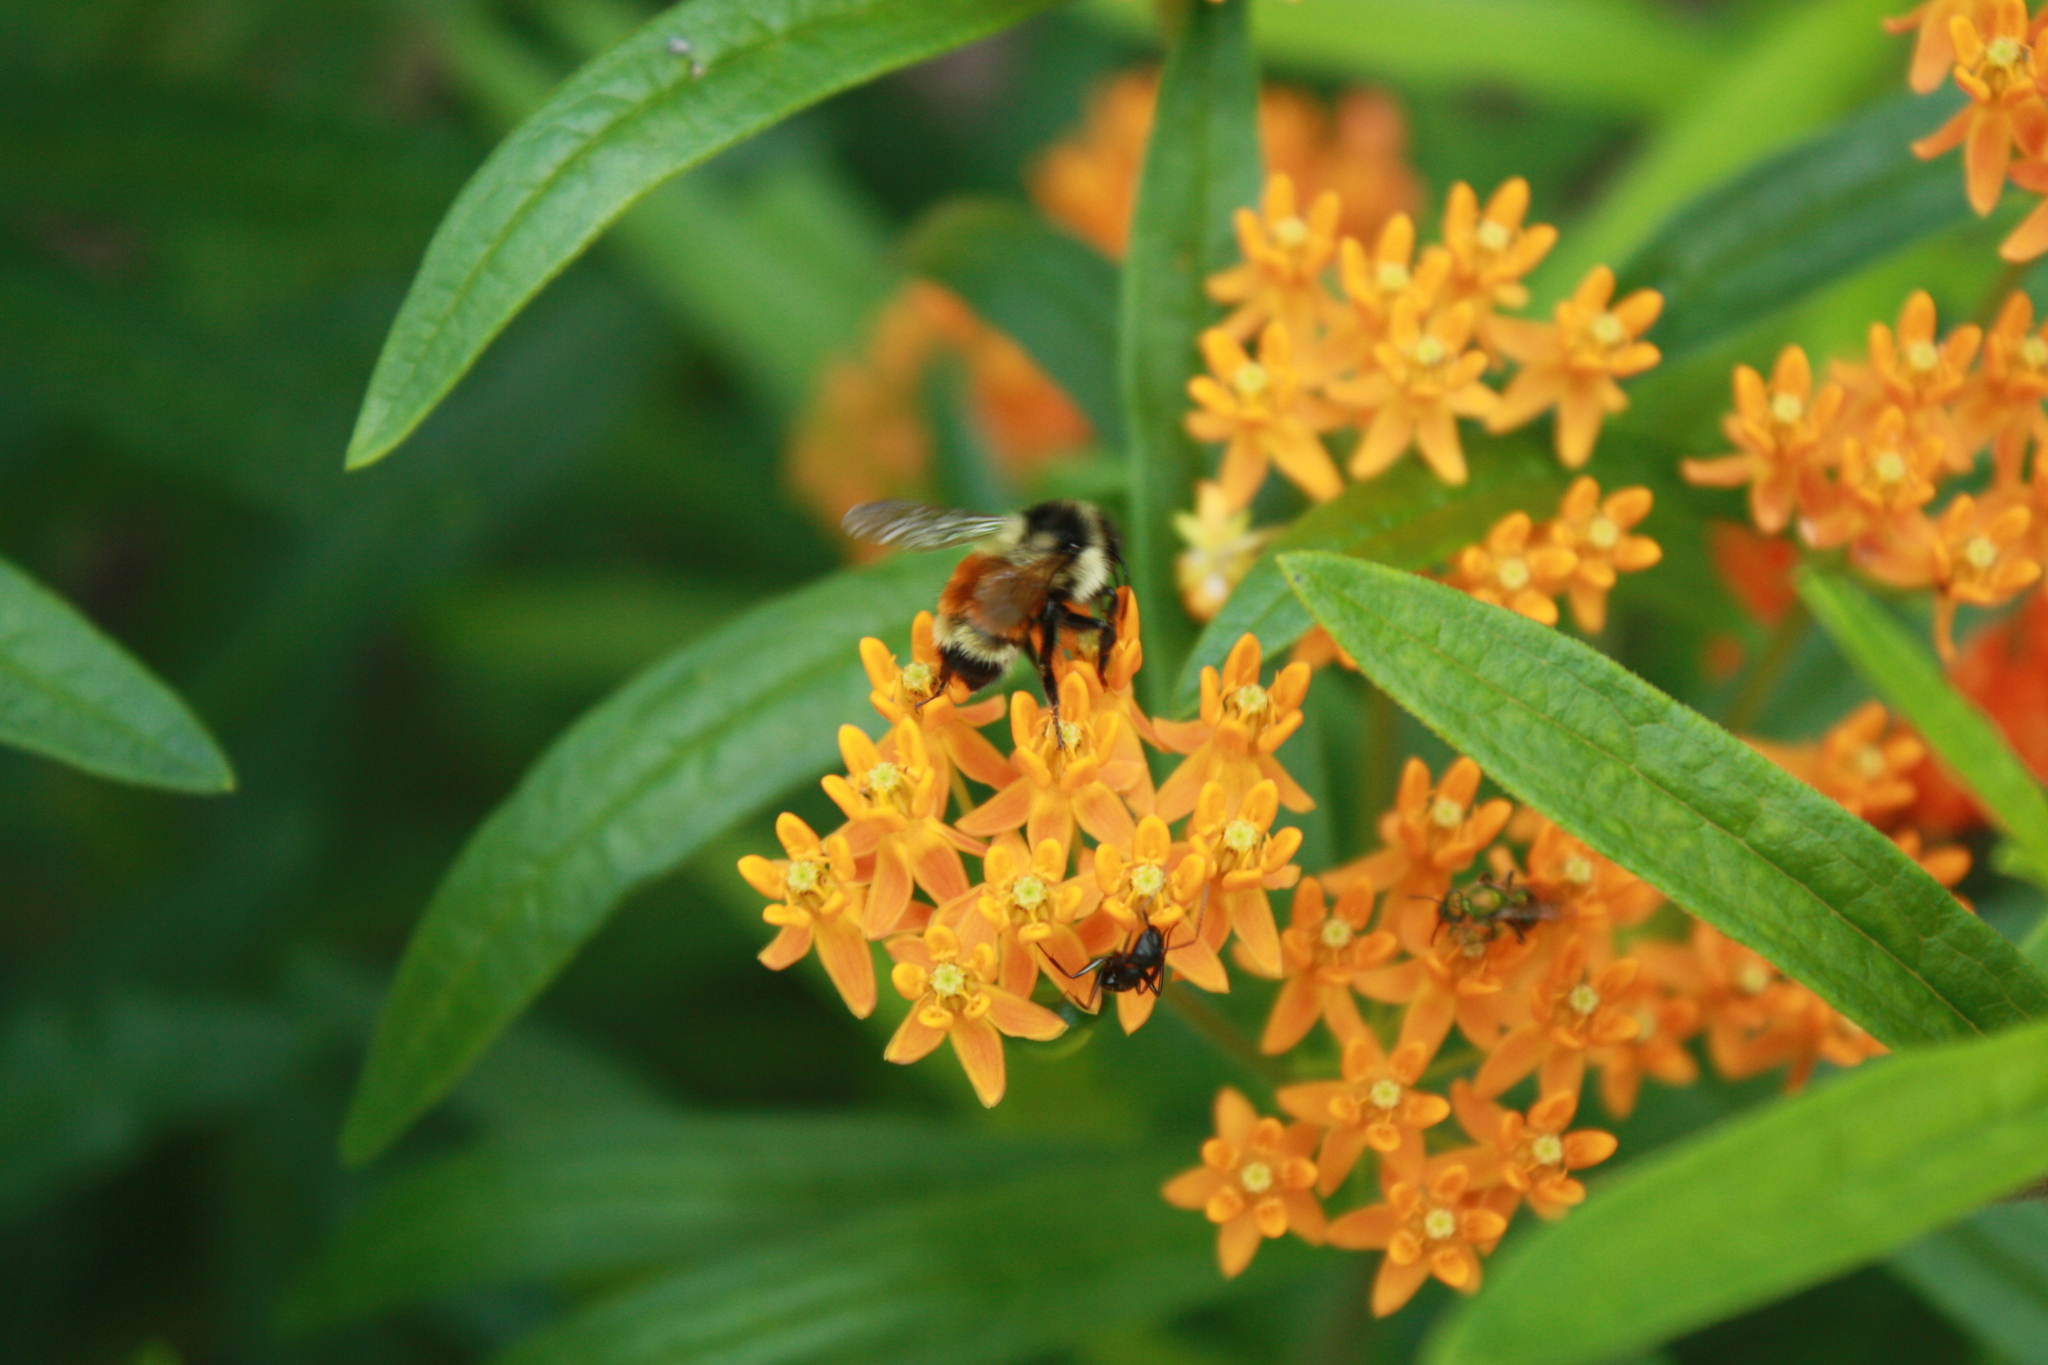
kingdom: Animalia
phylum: Arthropoda
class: Insecta
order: Hymenoptera
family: Apidae
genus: Bombus
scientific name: Bombus ternarius
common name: Tri-colored bumble bee
